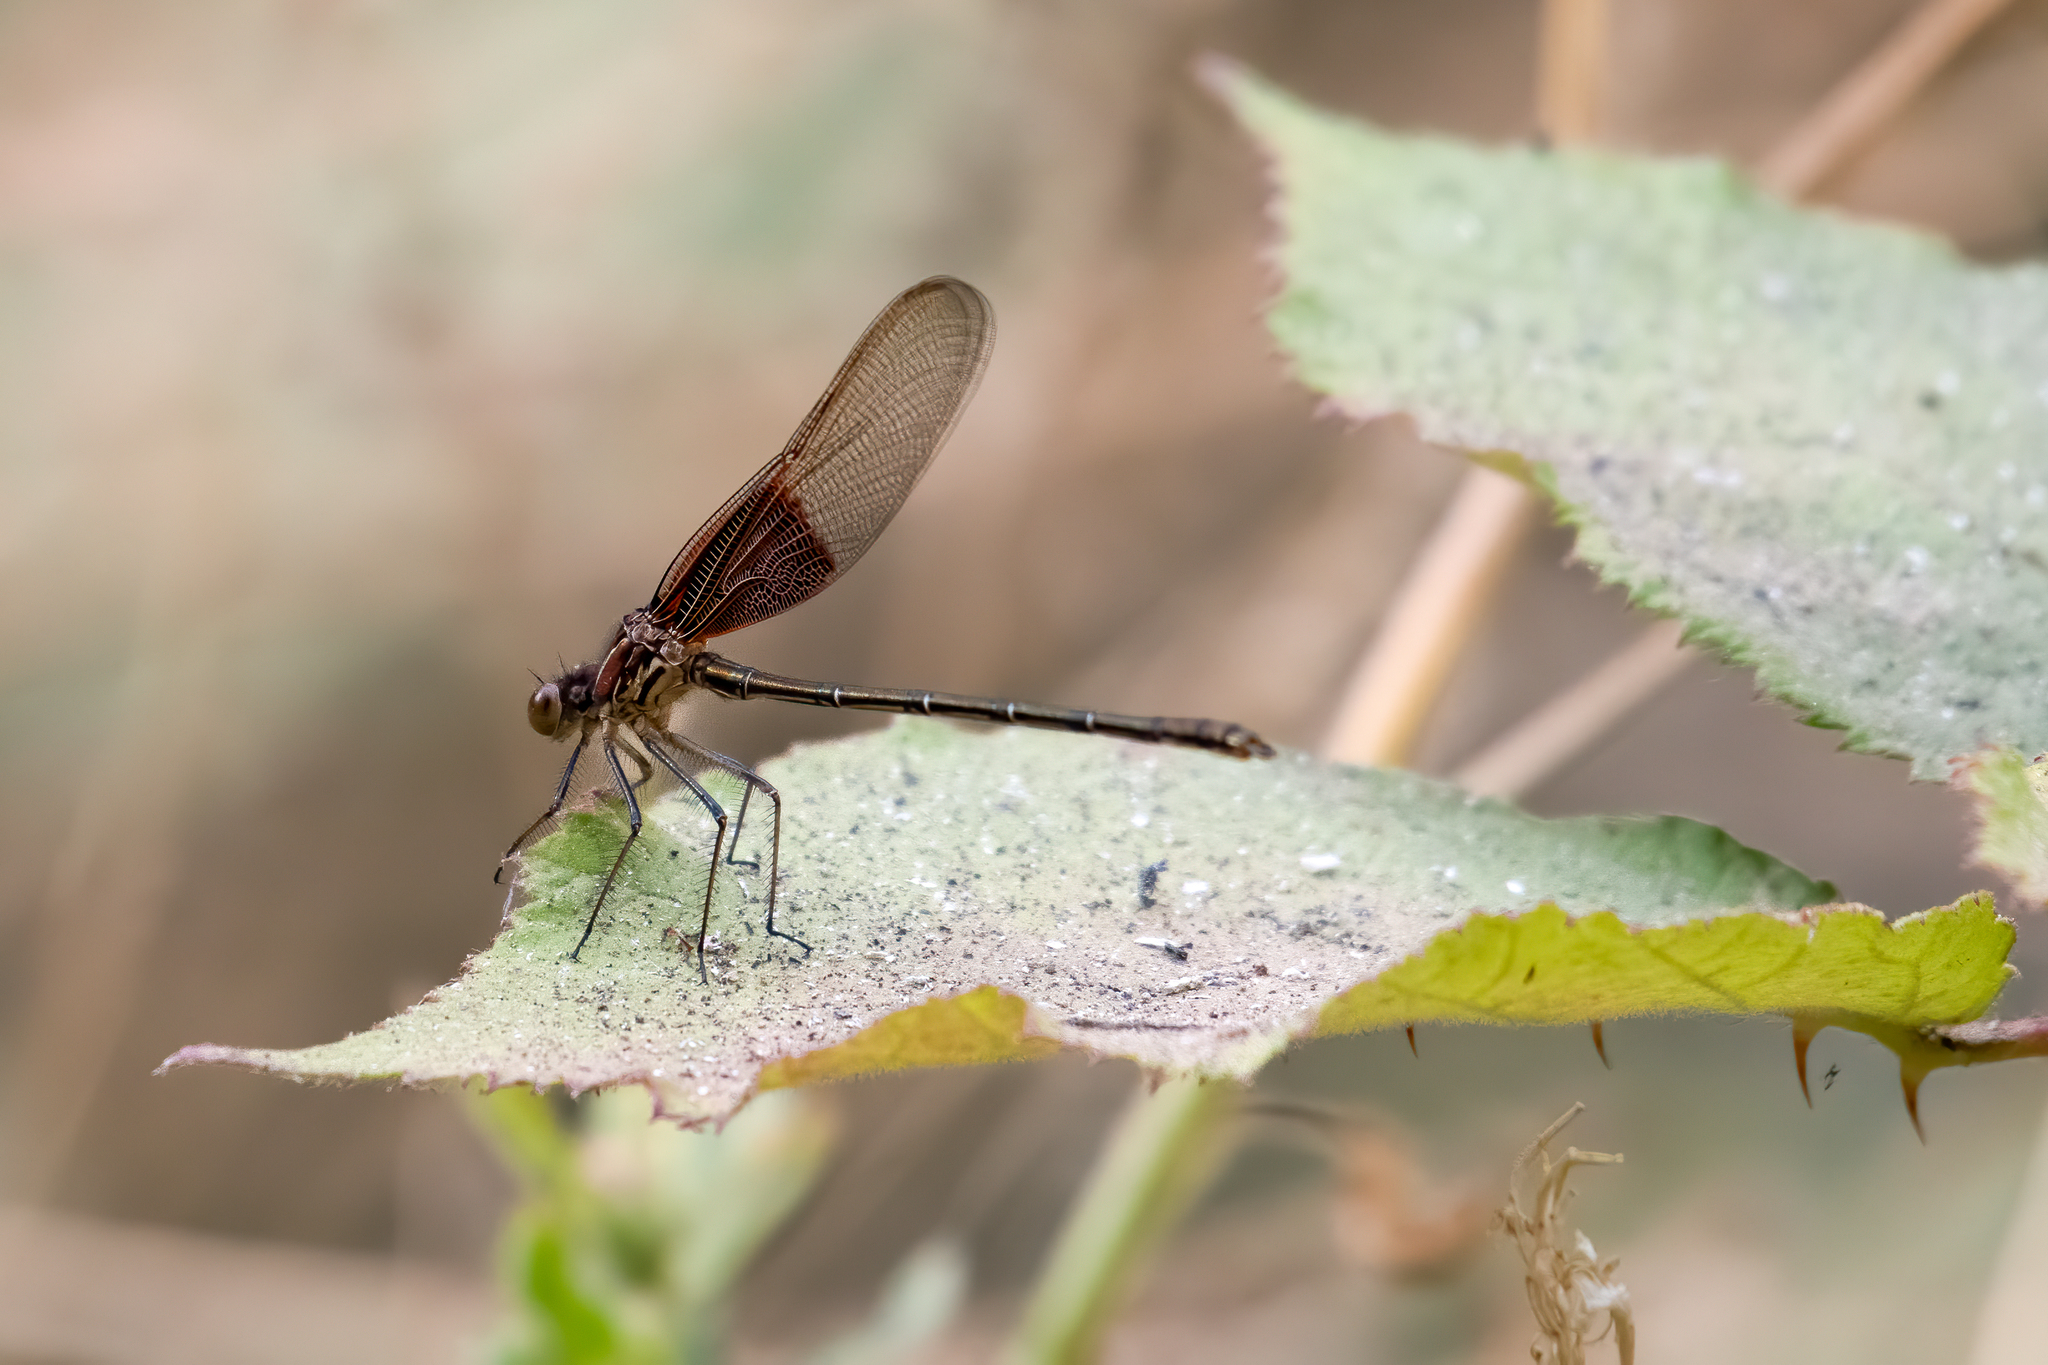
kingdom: Animalia
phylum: Arthropoda
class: Insecta
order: Odonata
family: Calopterygidae
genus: Hetaerina
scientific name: Hetaerina americana
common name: American rubyspot
